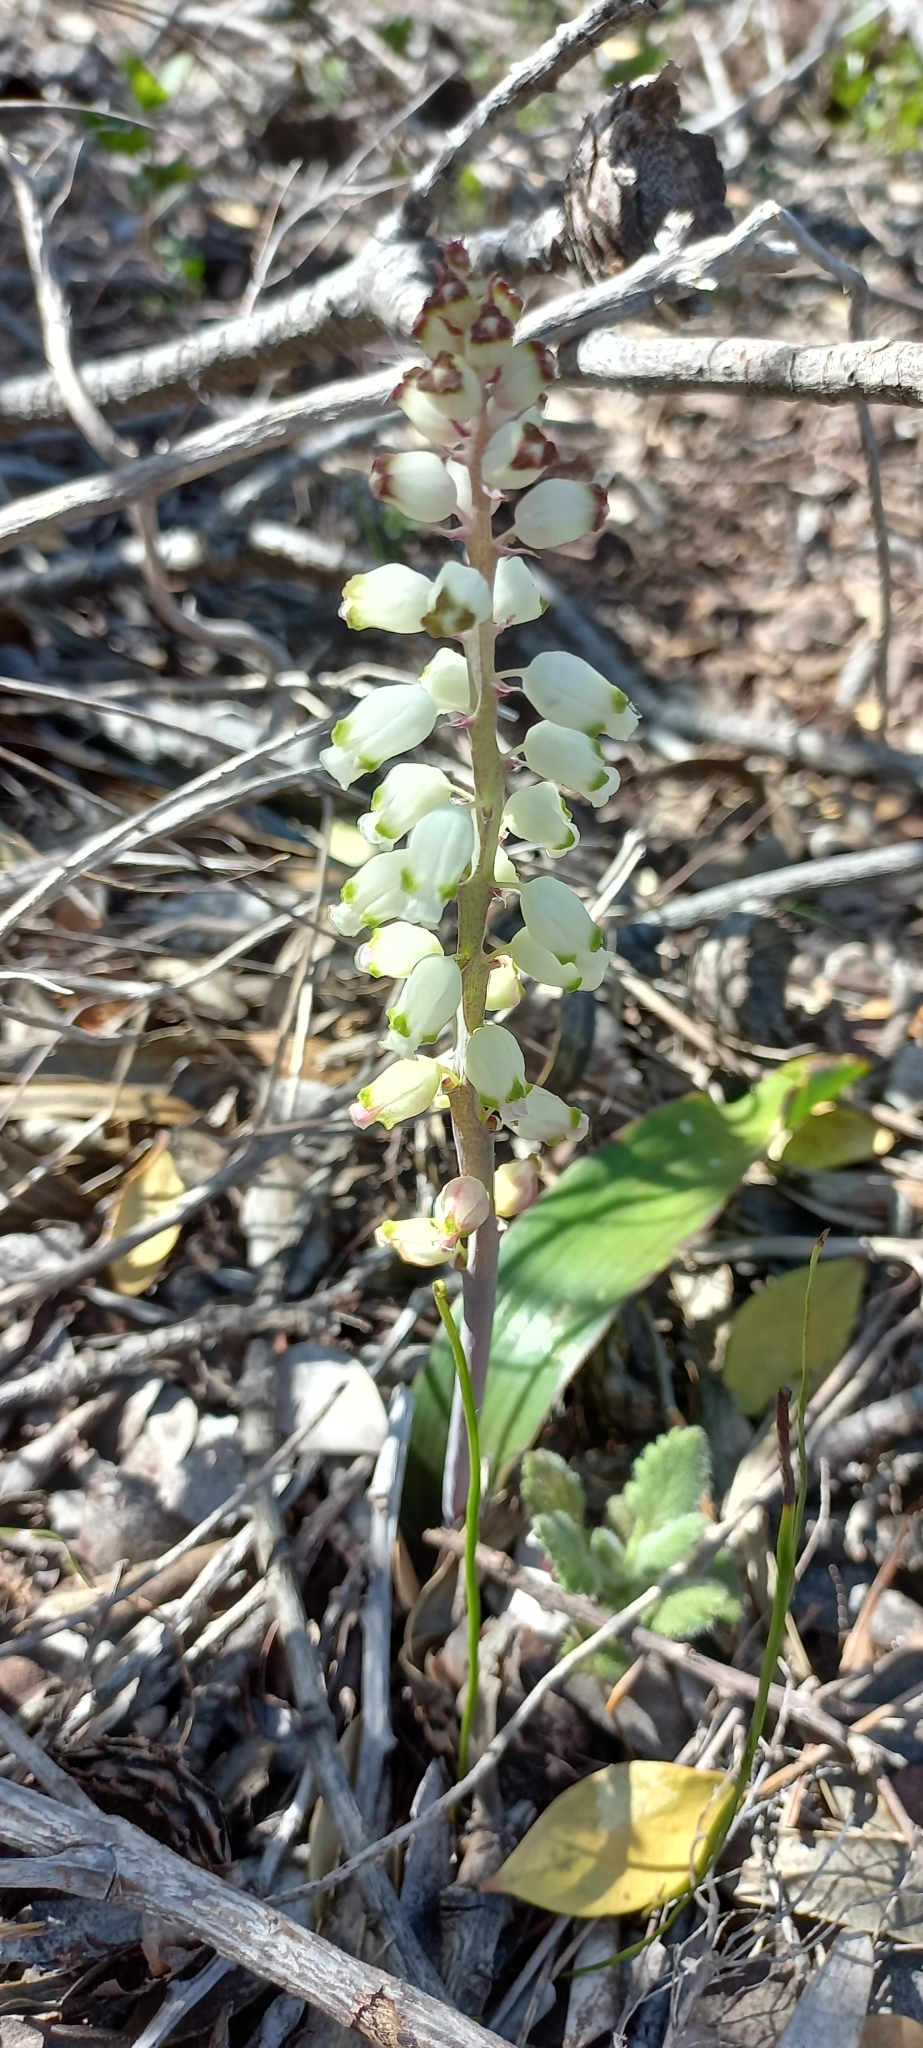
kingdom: Plantae
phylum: Tracheophyta
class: Liliopsida
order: Asparagales
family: Asparagaceae
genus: Lachenalia
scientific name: Lachenalia peersii
